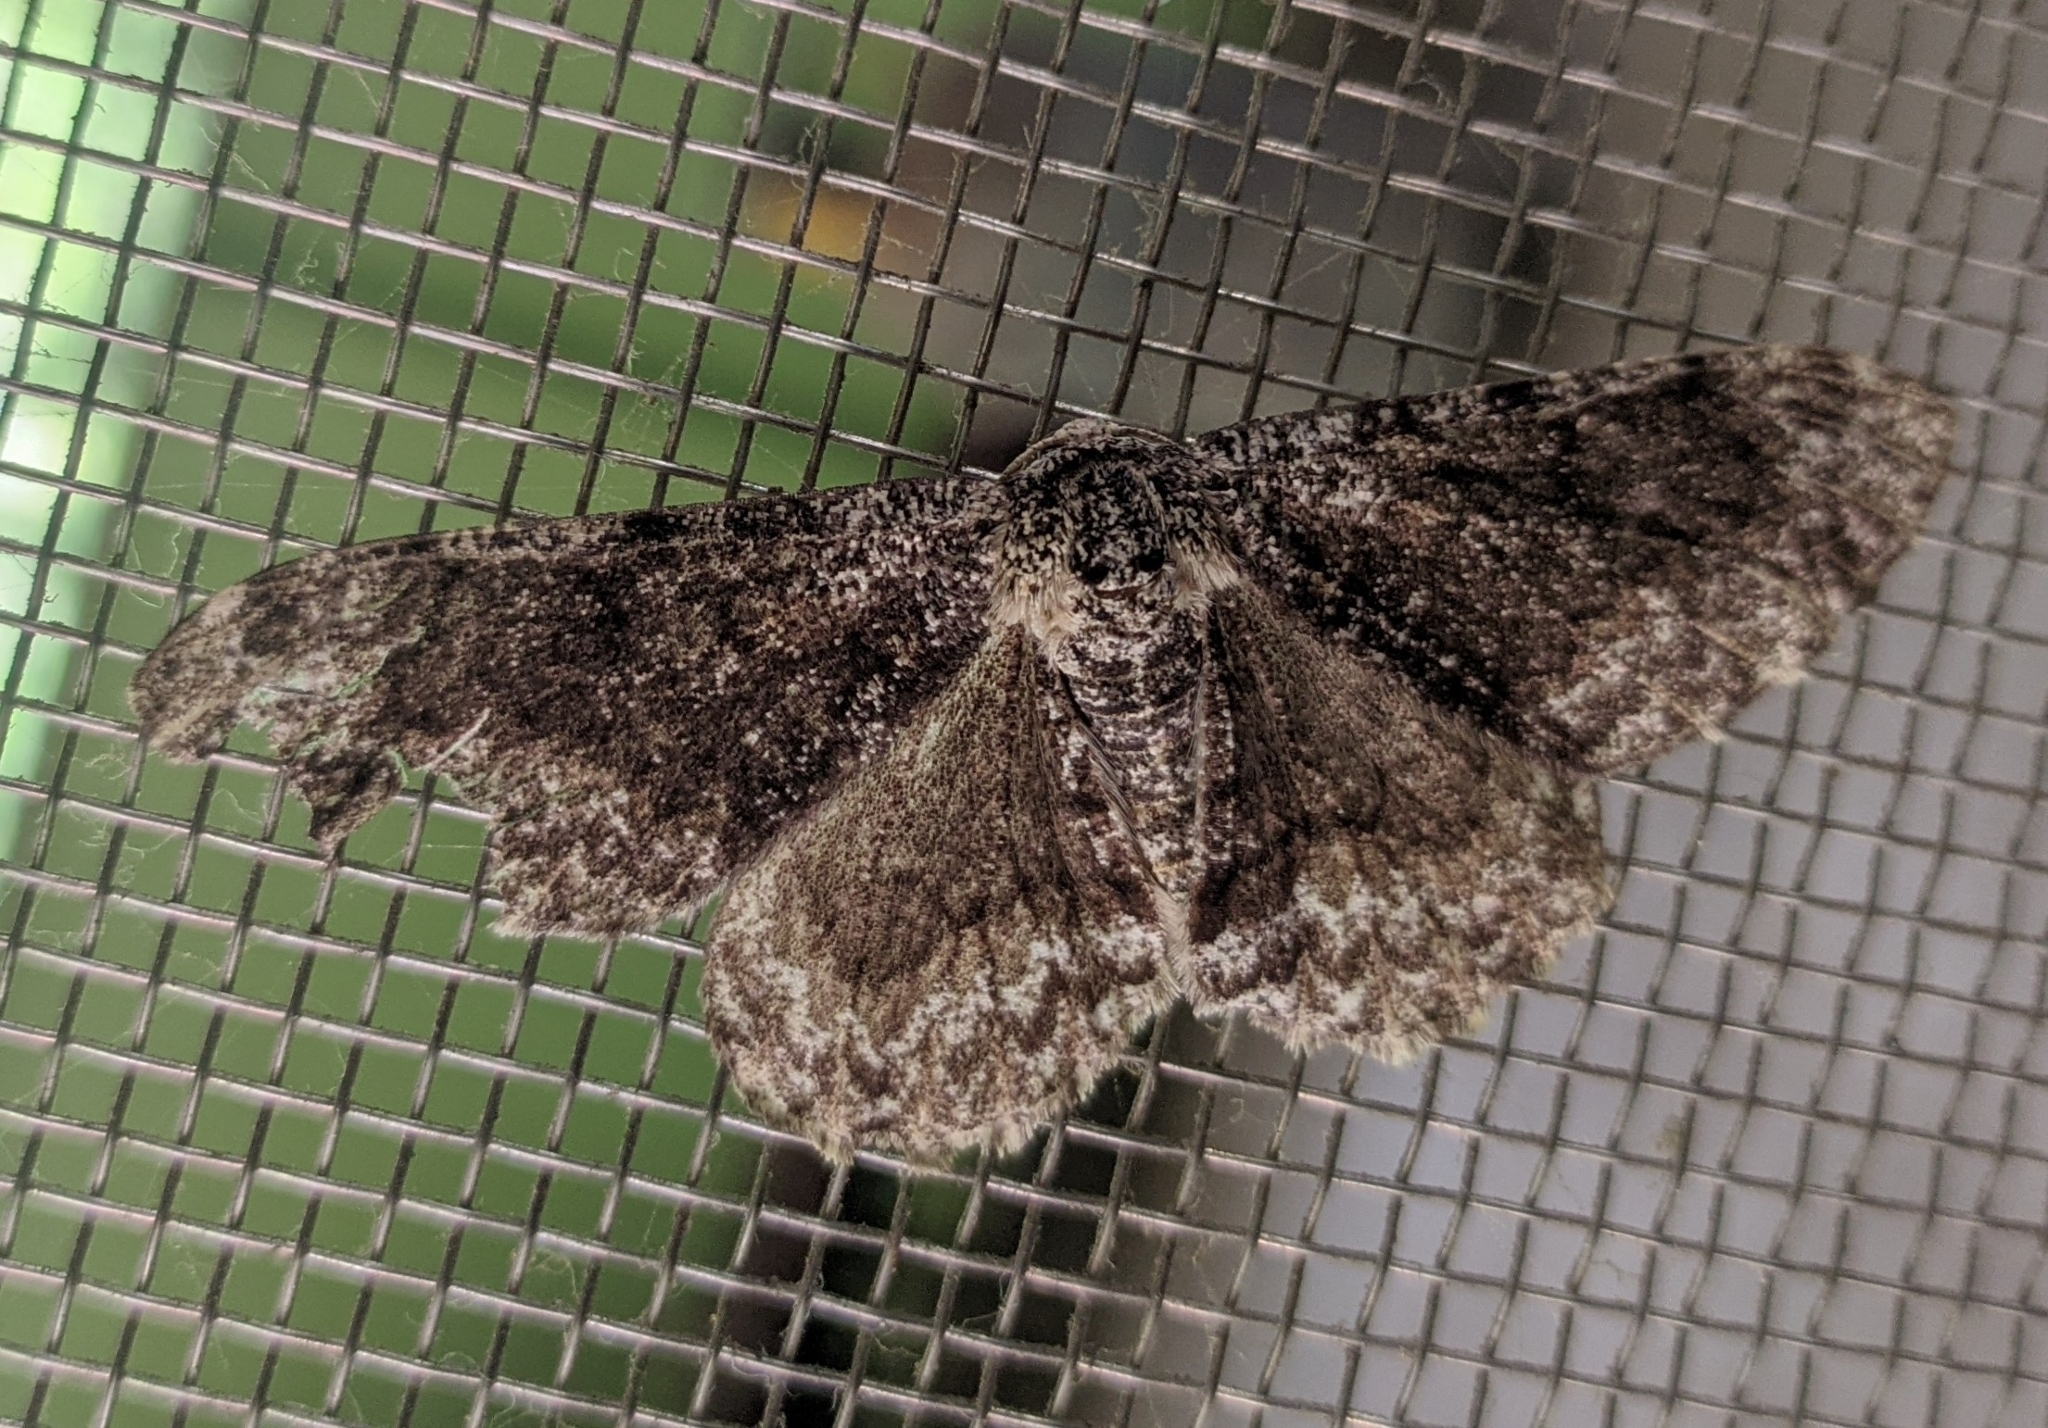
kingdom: Animalia
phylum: Arthropoda
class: Insecta
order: Lepidoptera
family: Geometridae
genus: Cusiala
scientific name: Cusiala raptaria
